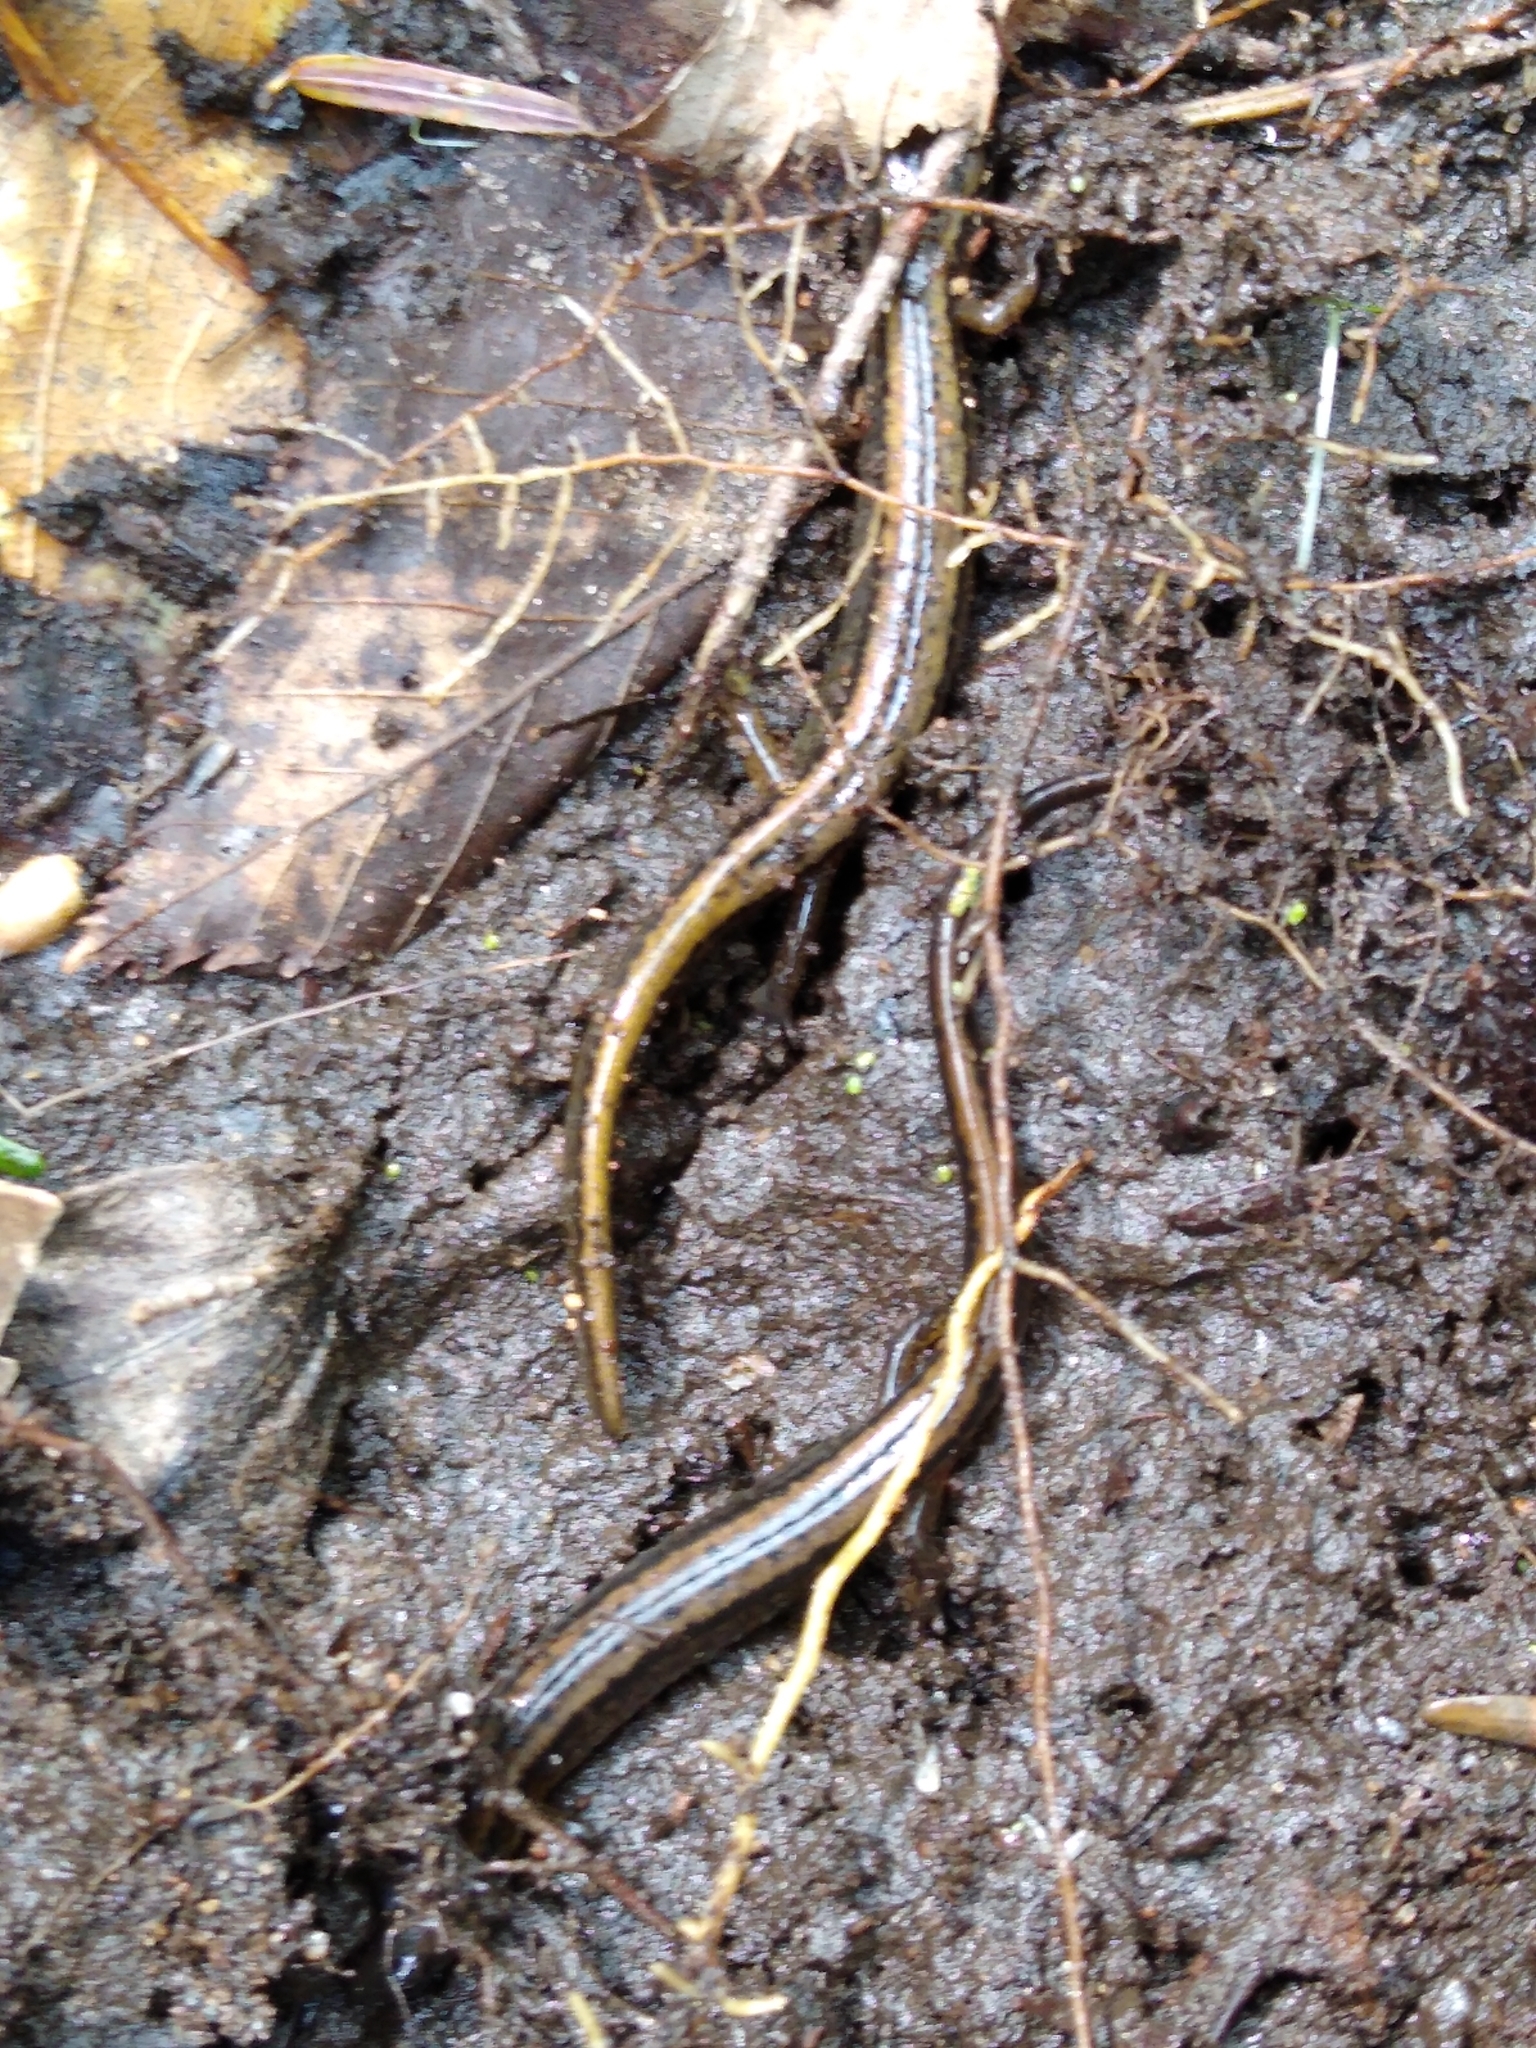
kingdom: Animalia
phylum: Chordata
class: Amphibia
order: Caudata
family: Plethodontidae
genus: Eurycea
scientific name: Eurycea bislineata
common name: Northern two-lined salamander
